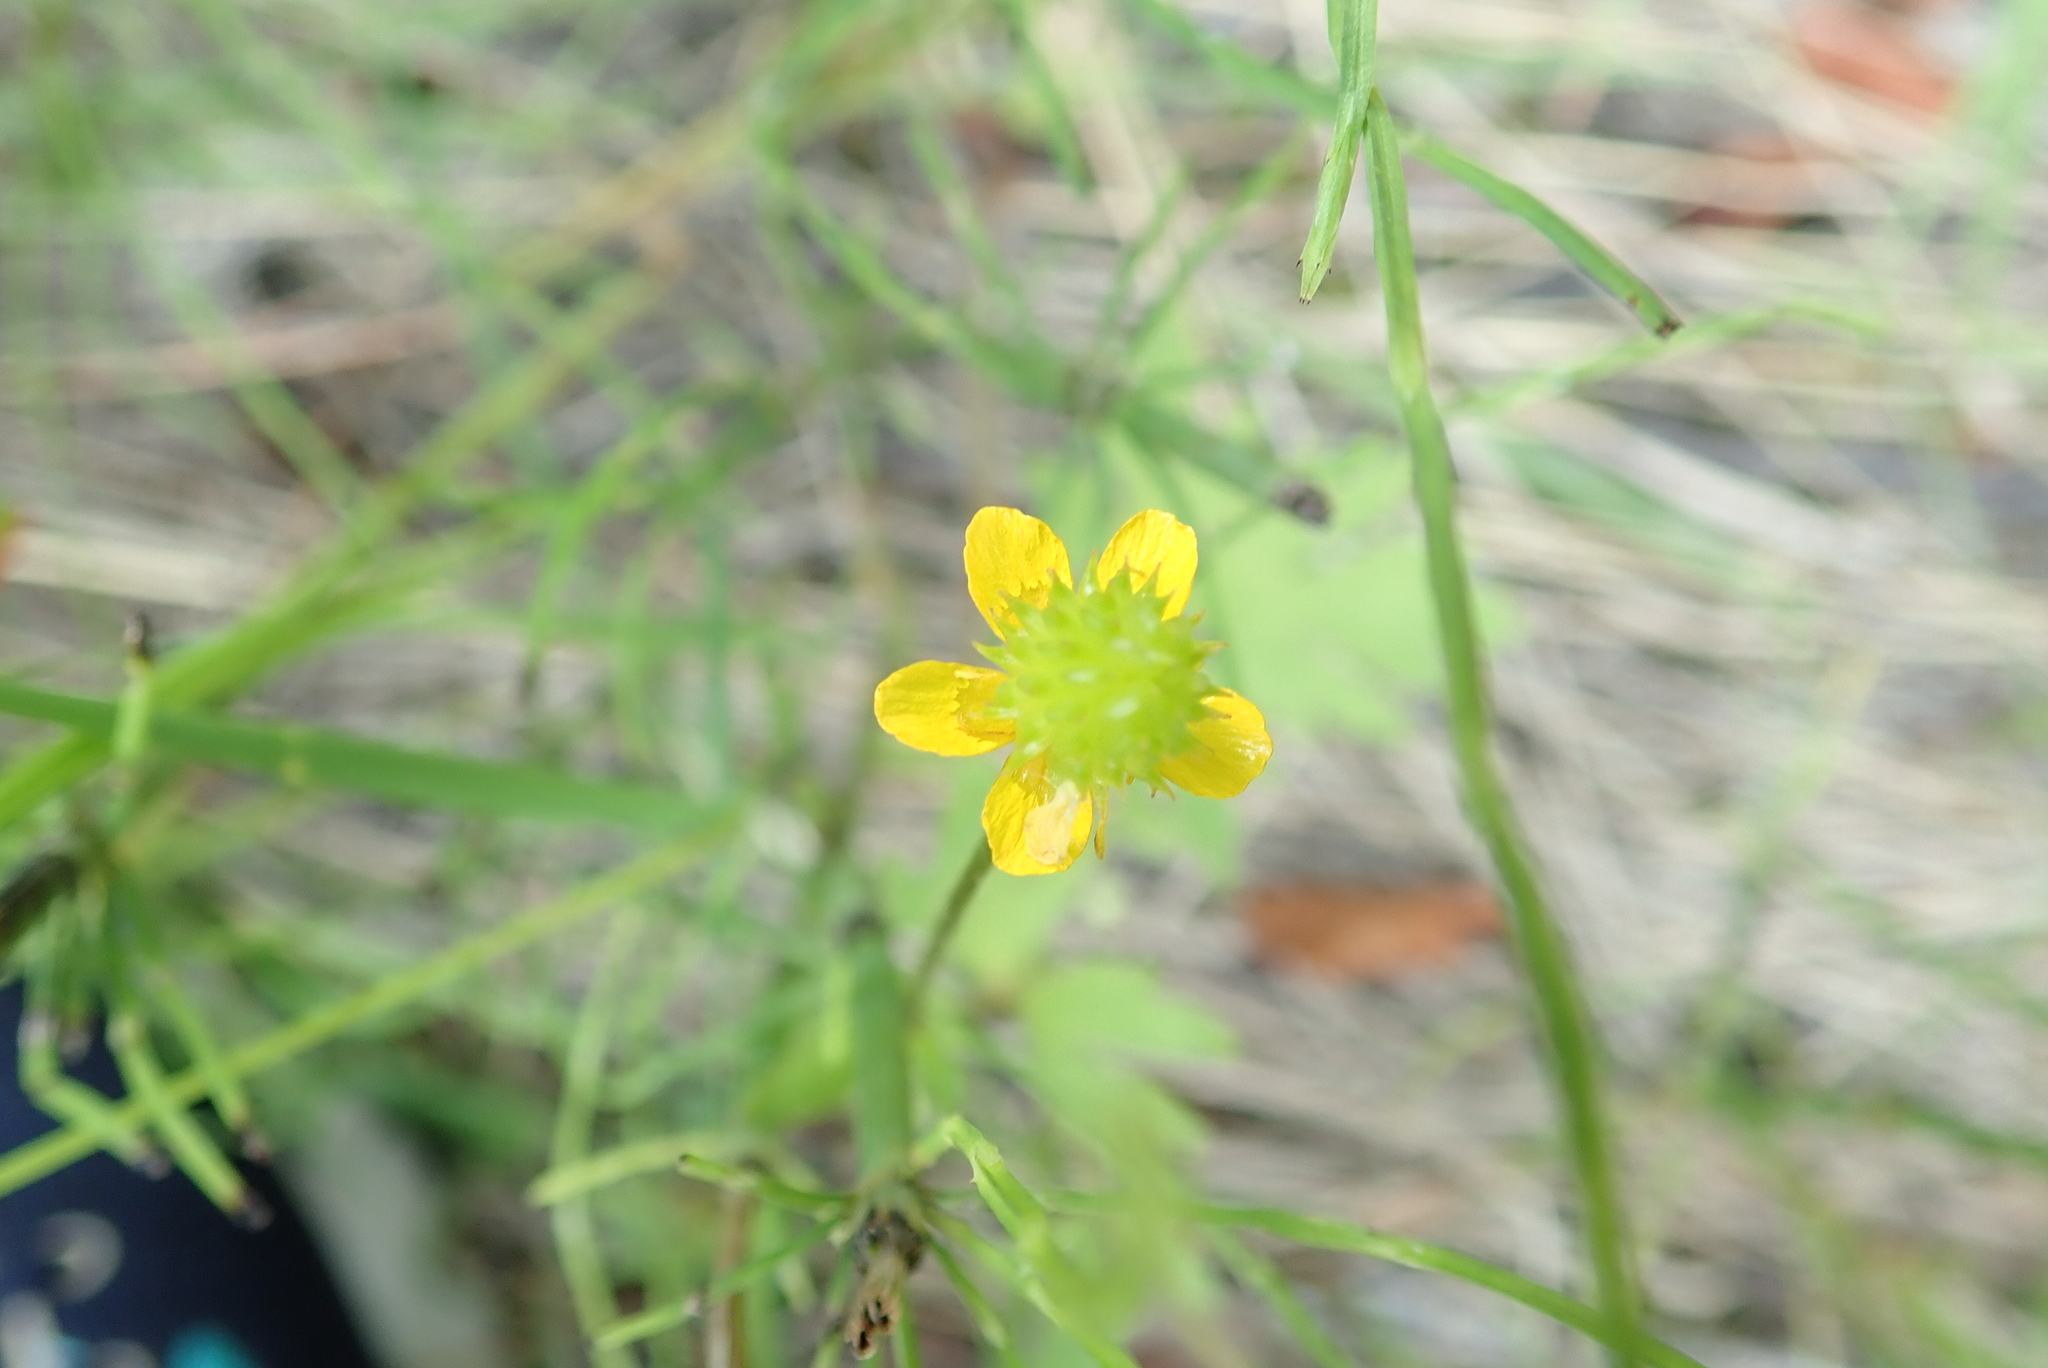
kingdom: Plantae
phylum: Tracheophyta
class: Magnoliopsida
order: Ranunculales
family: Ranunculaceae
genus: Ranunculus
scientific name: Ranunculus macounii
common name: Macoun's buttercup
